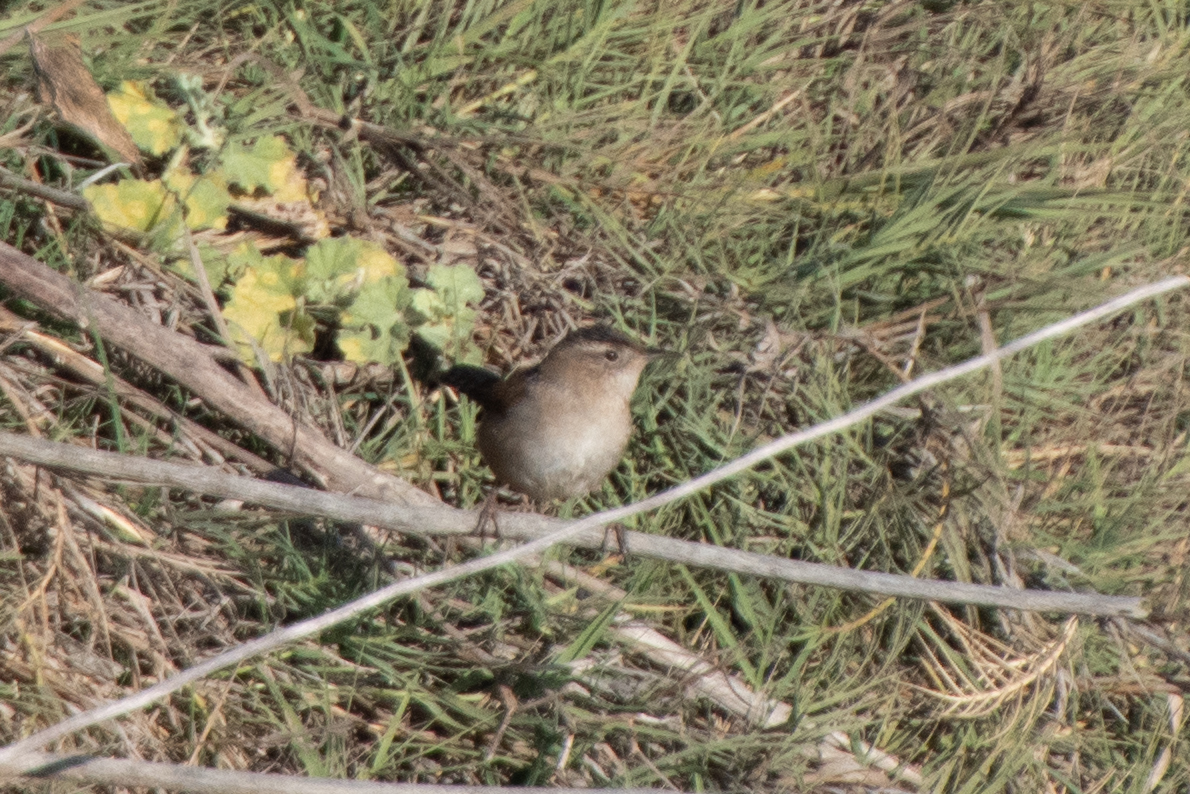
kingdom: Animalia
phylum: Chordata
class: Aves
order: Passeriformes
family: Troglodytidae
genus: Cistothorus
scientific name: Cistothorus palustris
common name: Marsh wren
